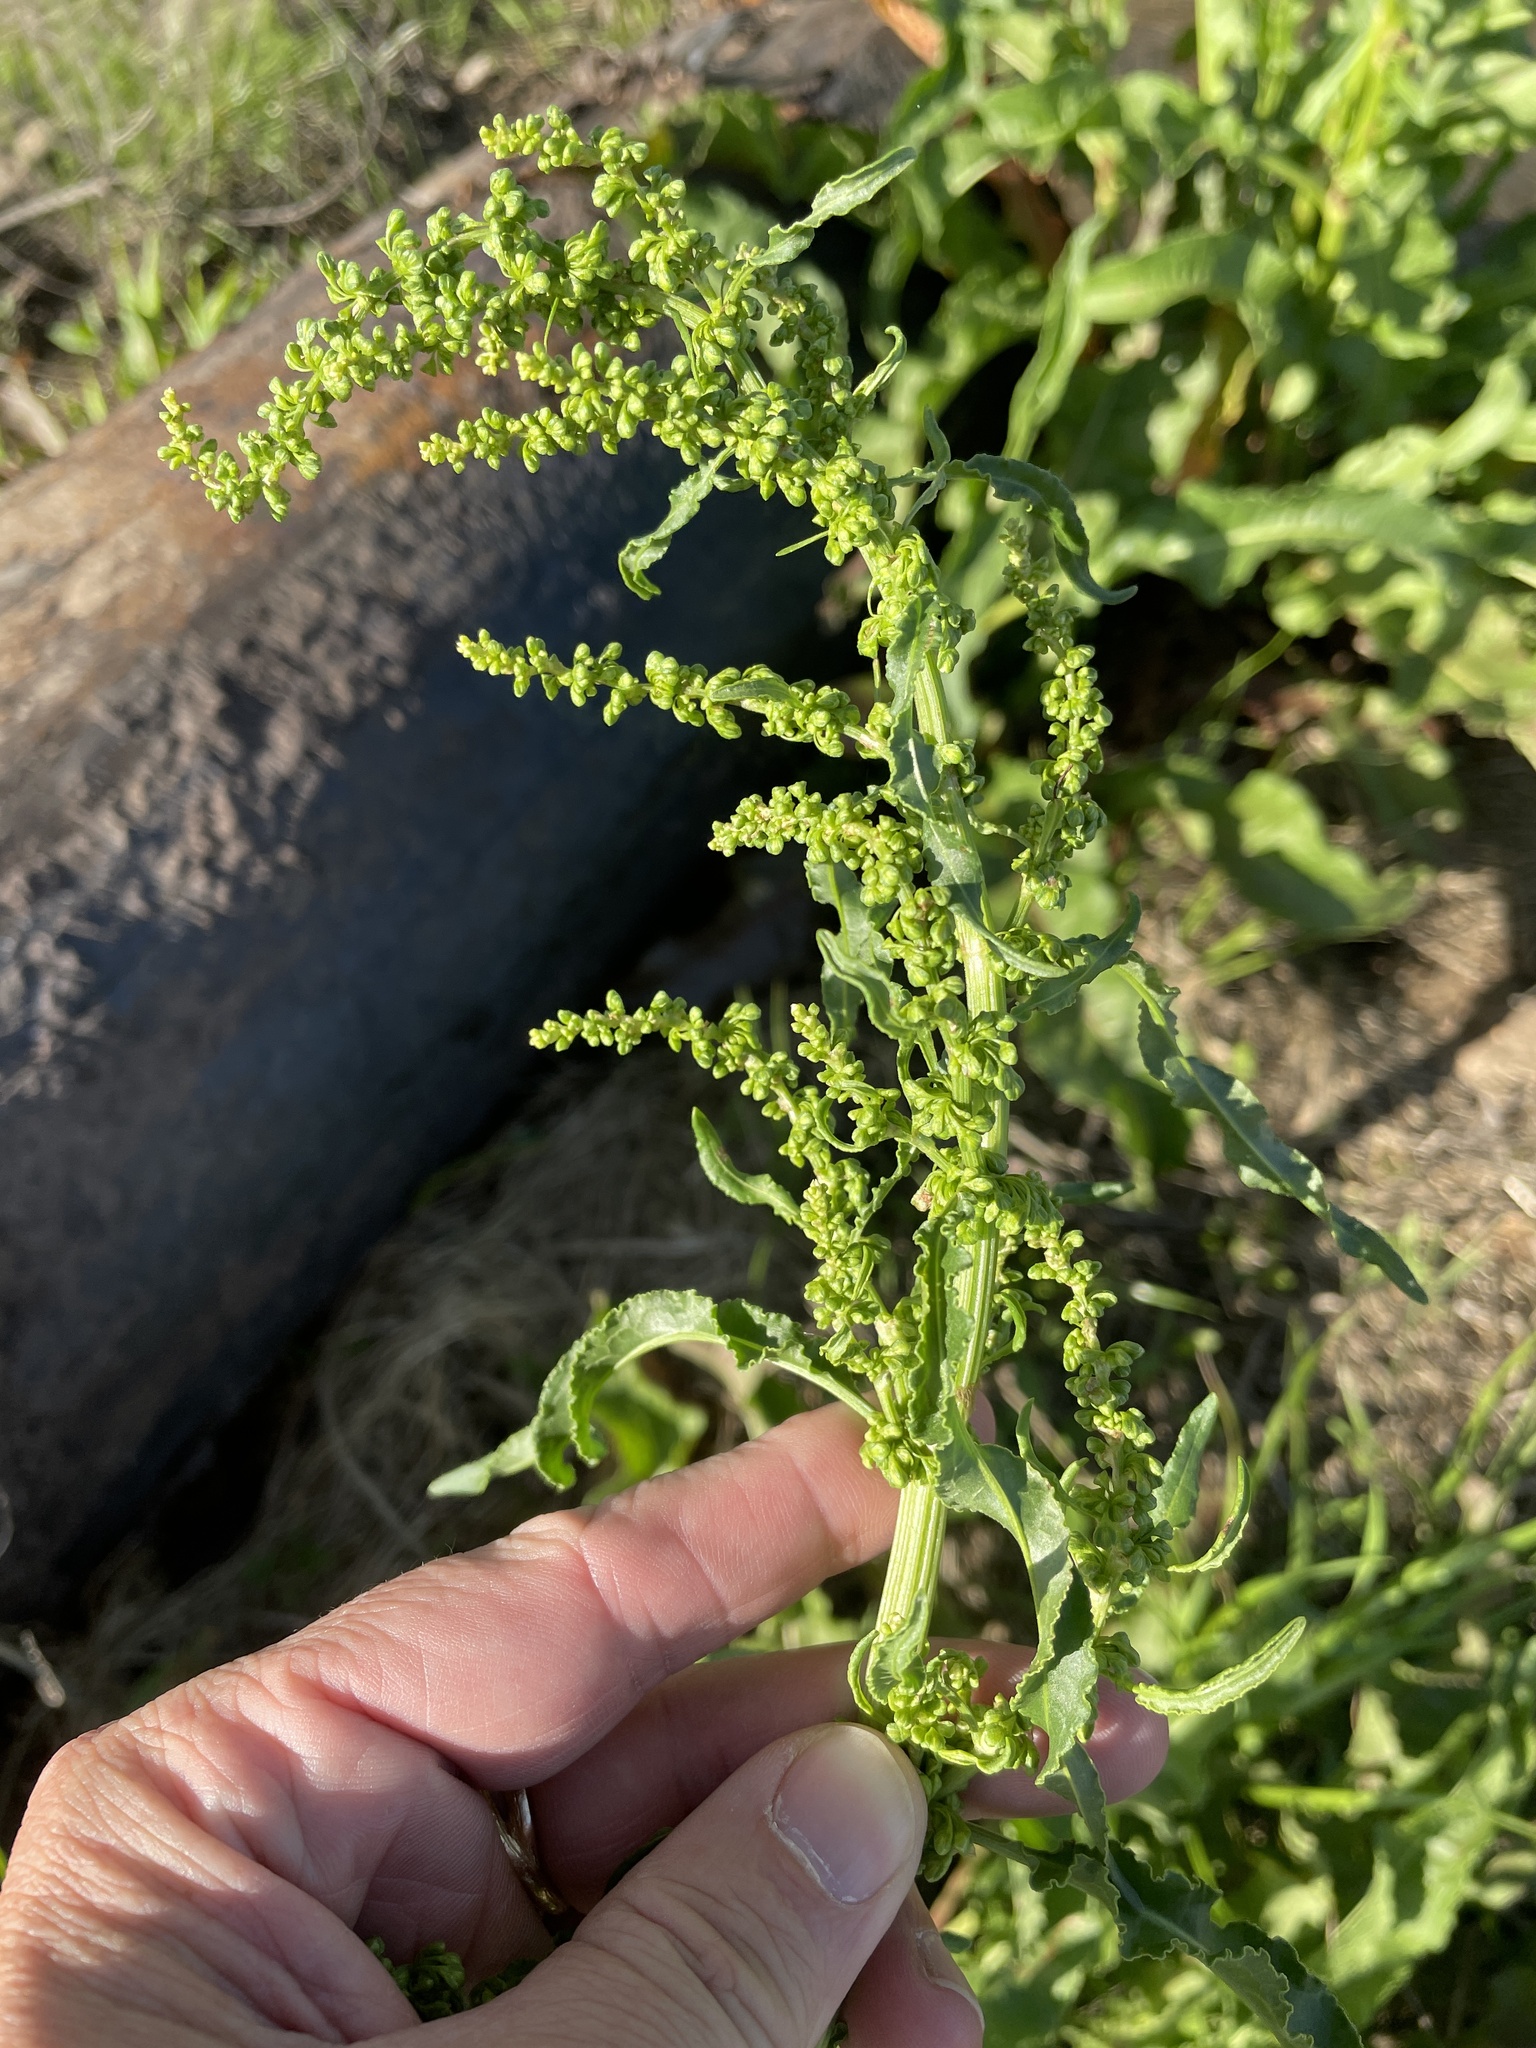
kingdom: Plantae
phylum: Tracheophyta
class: Magnoliopsida
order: Caryophyllales
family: Polygonaceae
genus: Rumex
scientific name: Rumex crispus
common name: Curled dock
